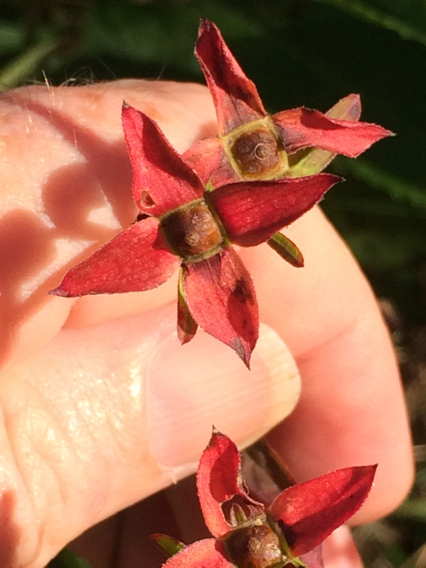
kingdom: Plantae
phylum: Tracheophyta
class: Magnoliopsida
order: Myrtales
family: Onagraceae
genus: Ludwigia
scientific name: Ludwigia alternifolia
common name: Rattlebox
